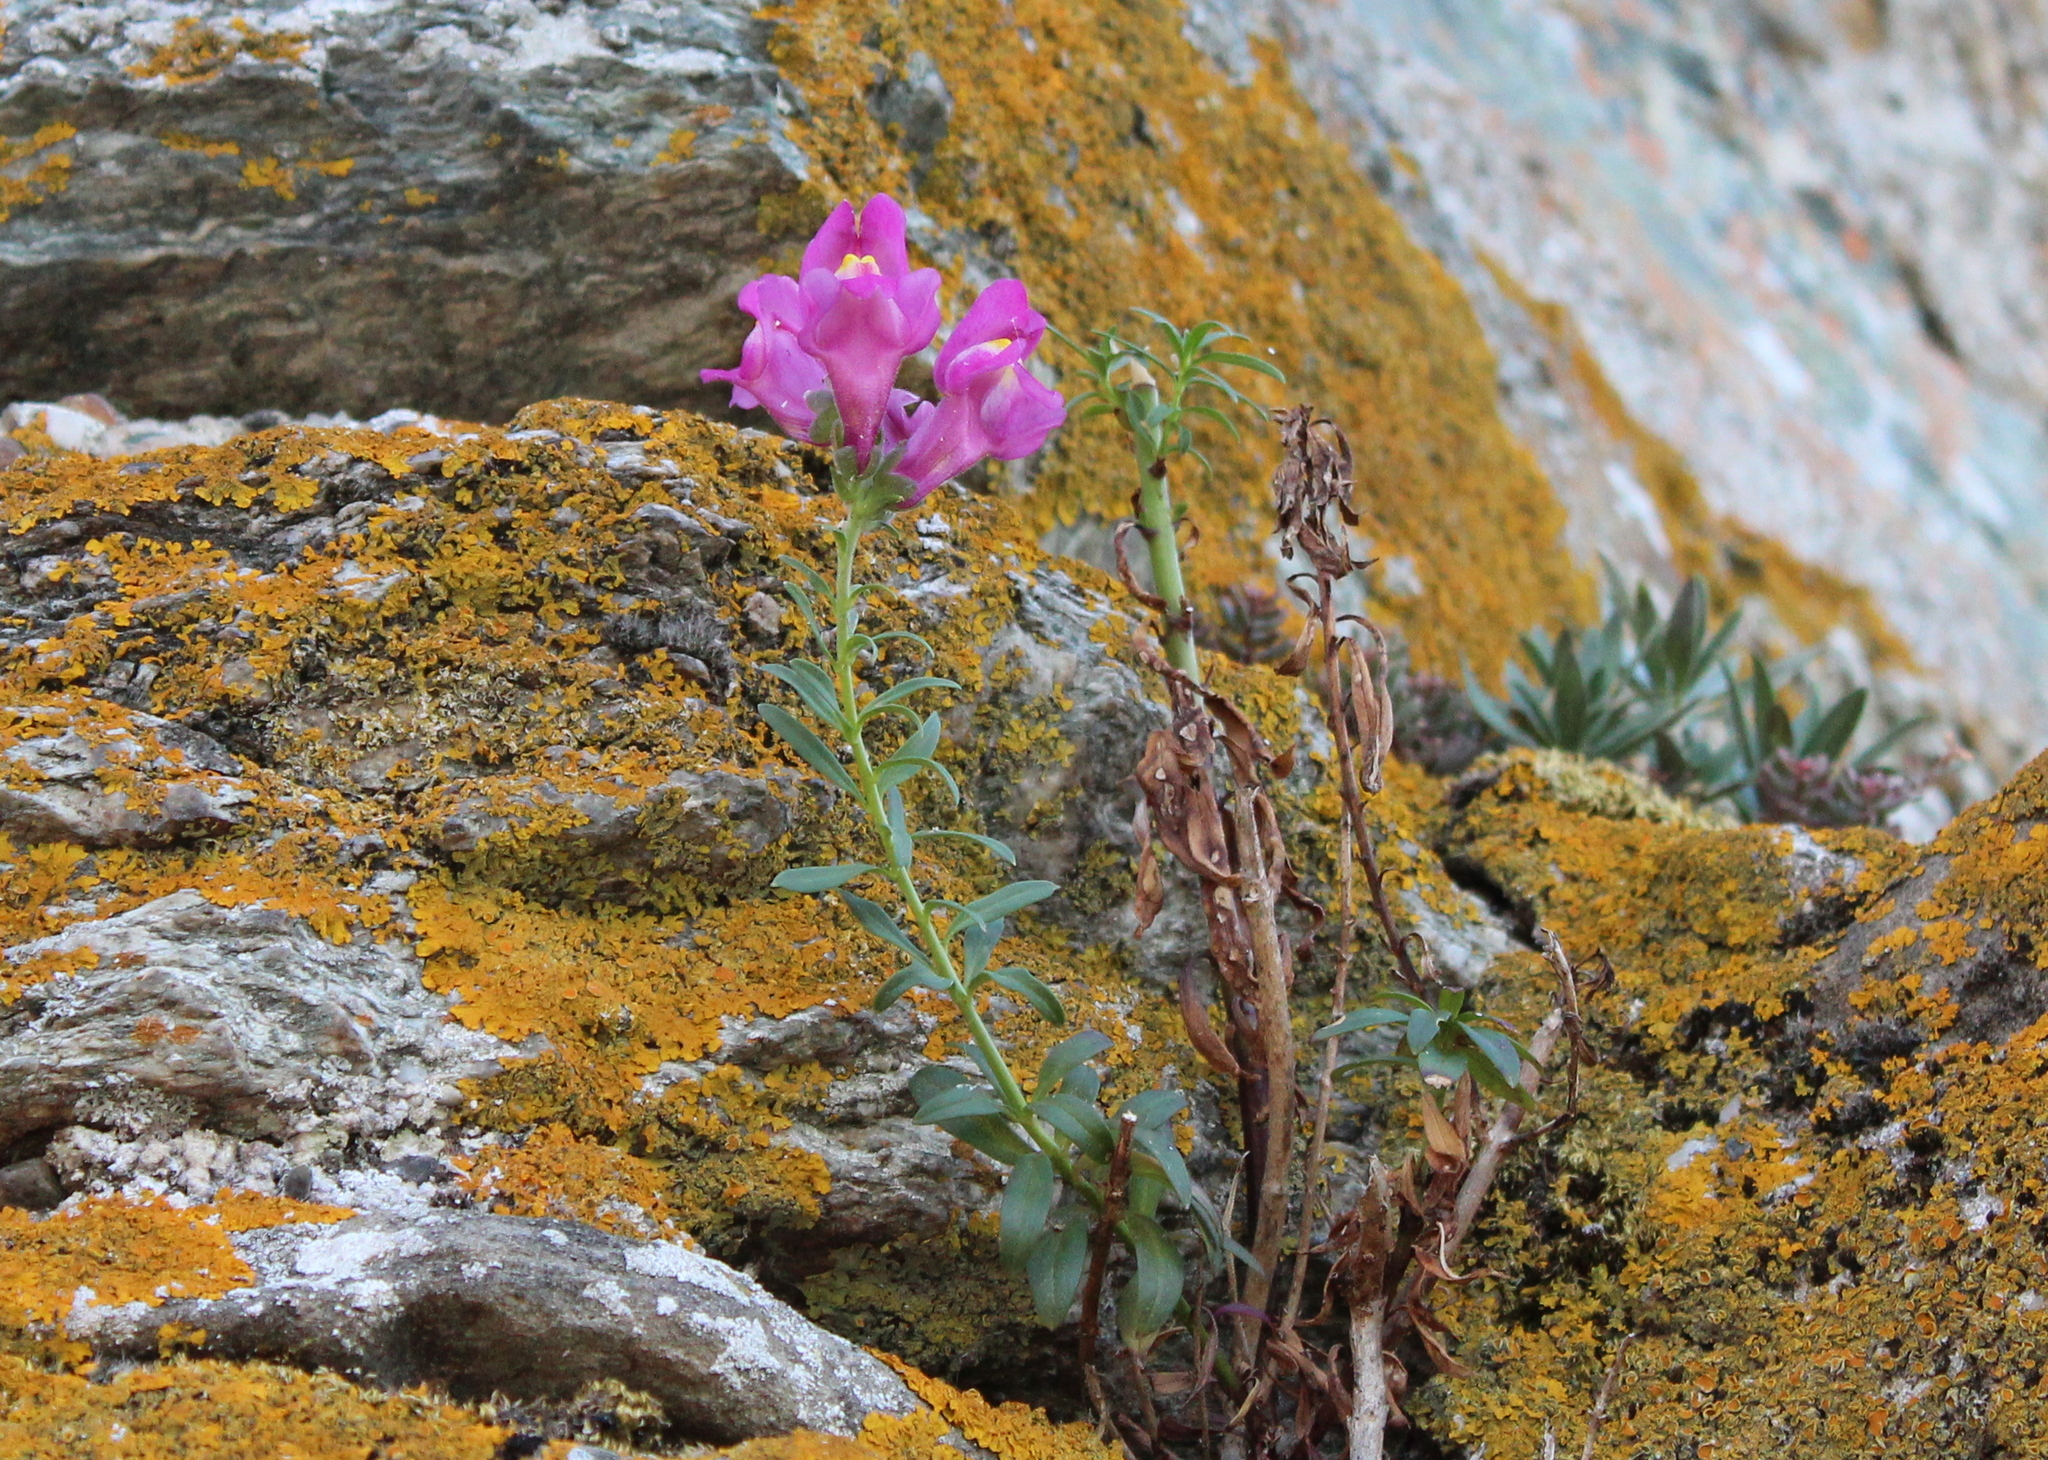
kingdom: Plantae
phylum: Tracheophyta
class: Magnoliopsida
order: Lamiales
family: Plantaginaceae
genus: Antirrhinum
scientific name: Antirrhinum majus
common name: Snapdragon
